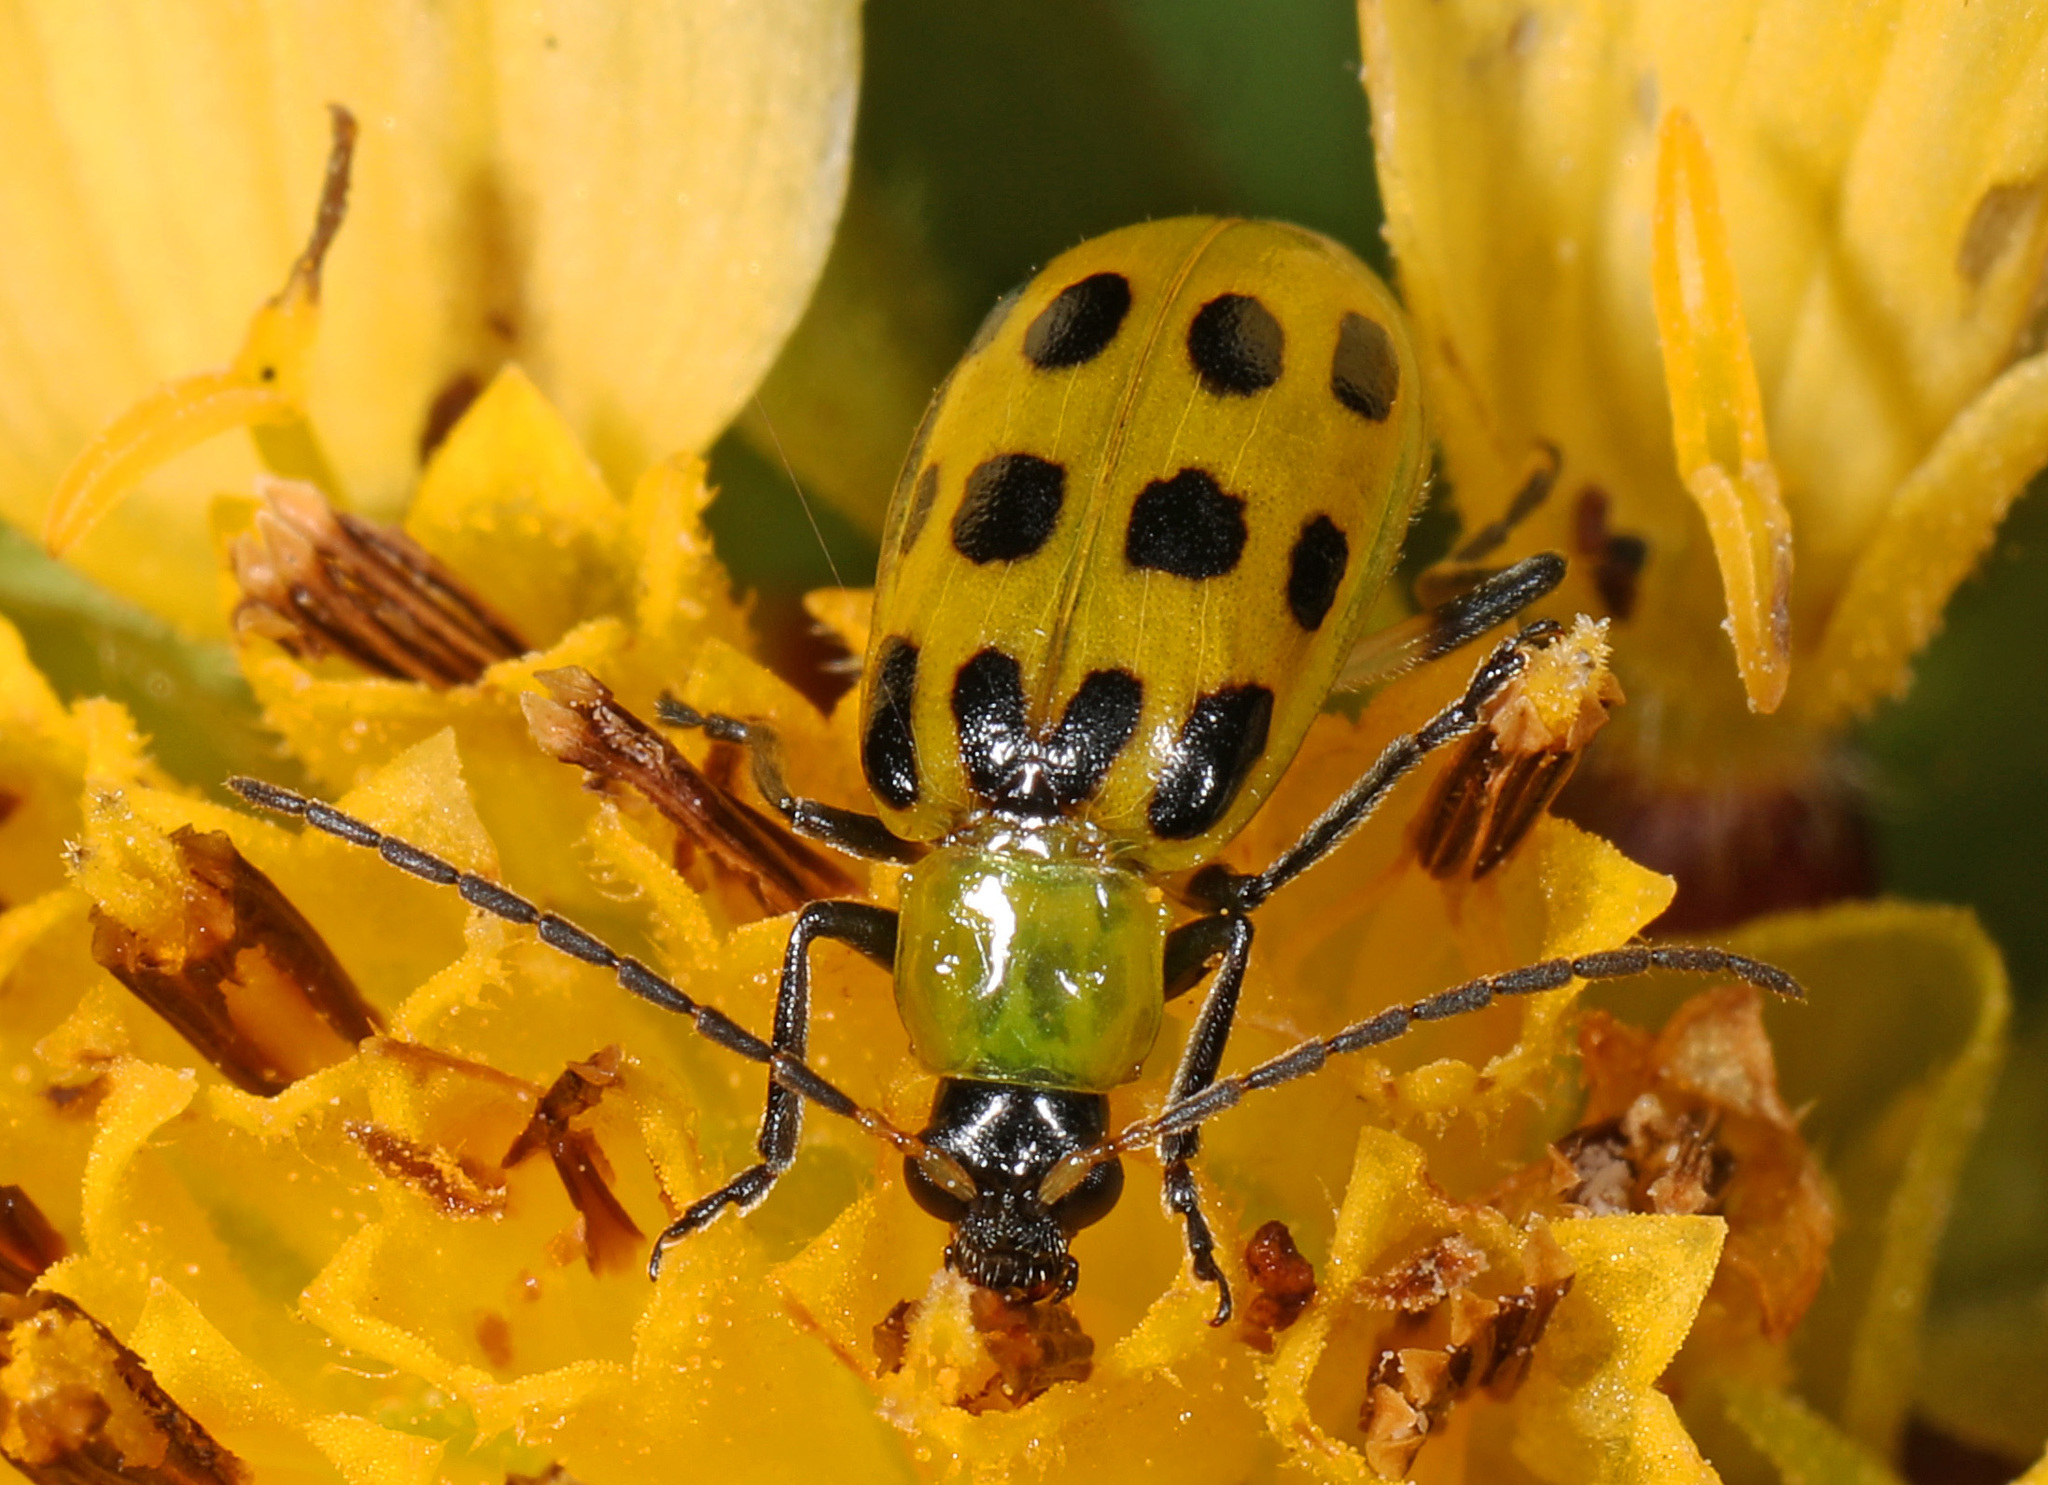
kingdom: Animalia
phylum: Arthropoda
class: Insecta
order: Coleoptera
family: Chrysomelidae
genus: Diabrotica
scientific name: Diabrotica undecimpunctata
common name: Spotted cucumber beetle
